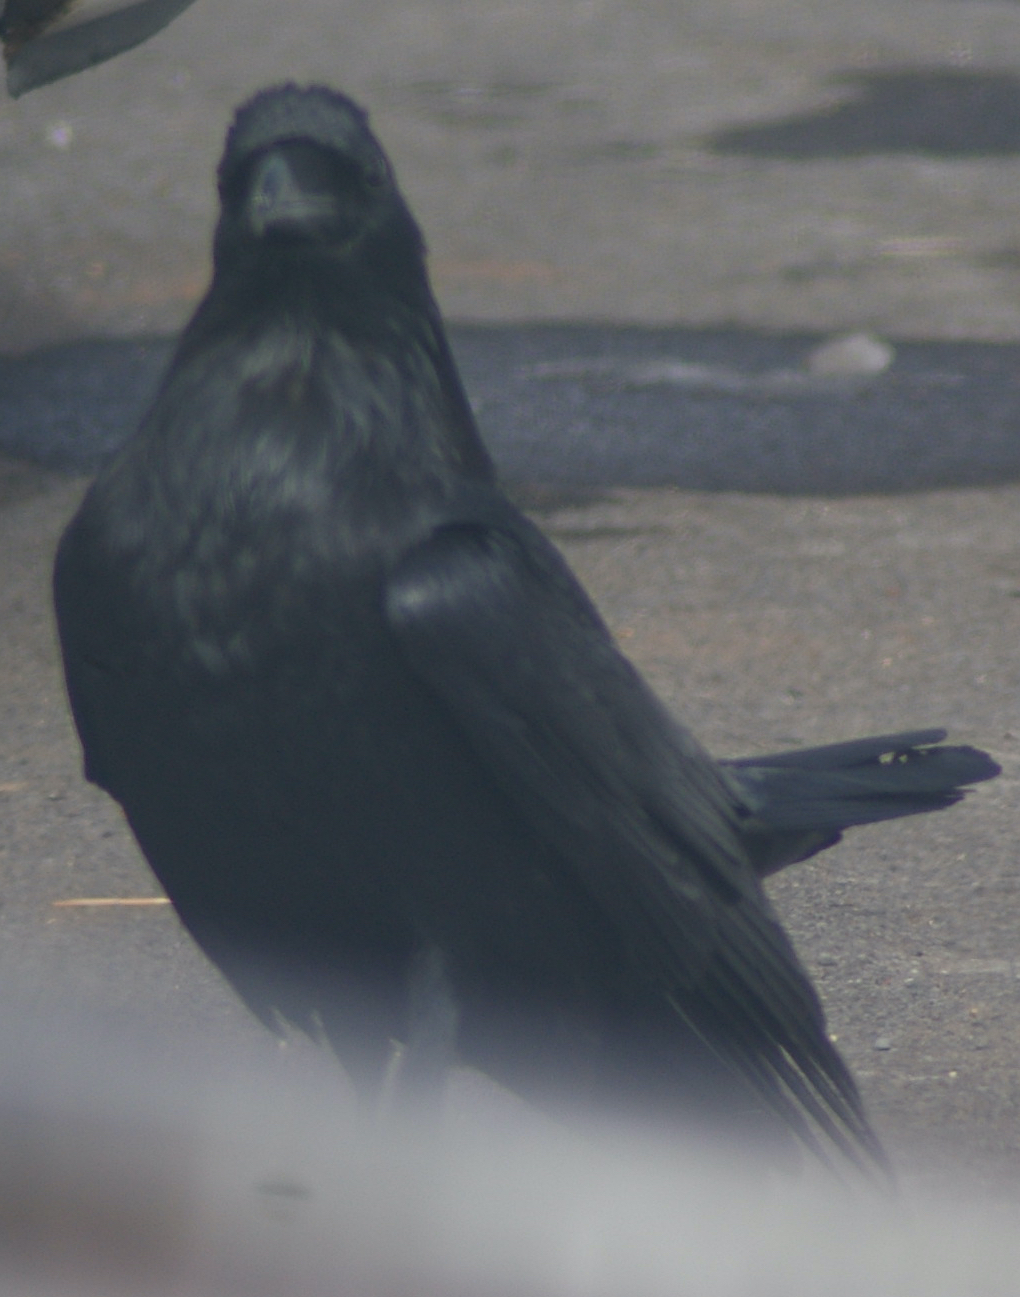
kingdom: Animalia
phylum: Chordata
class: Aves
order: Passeriformes
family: Corvidae
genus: Corvus
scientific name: Corvus corax
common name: Common raven
